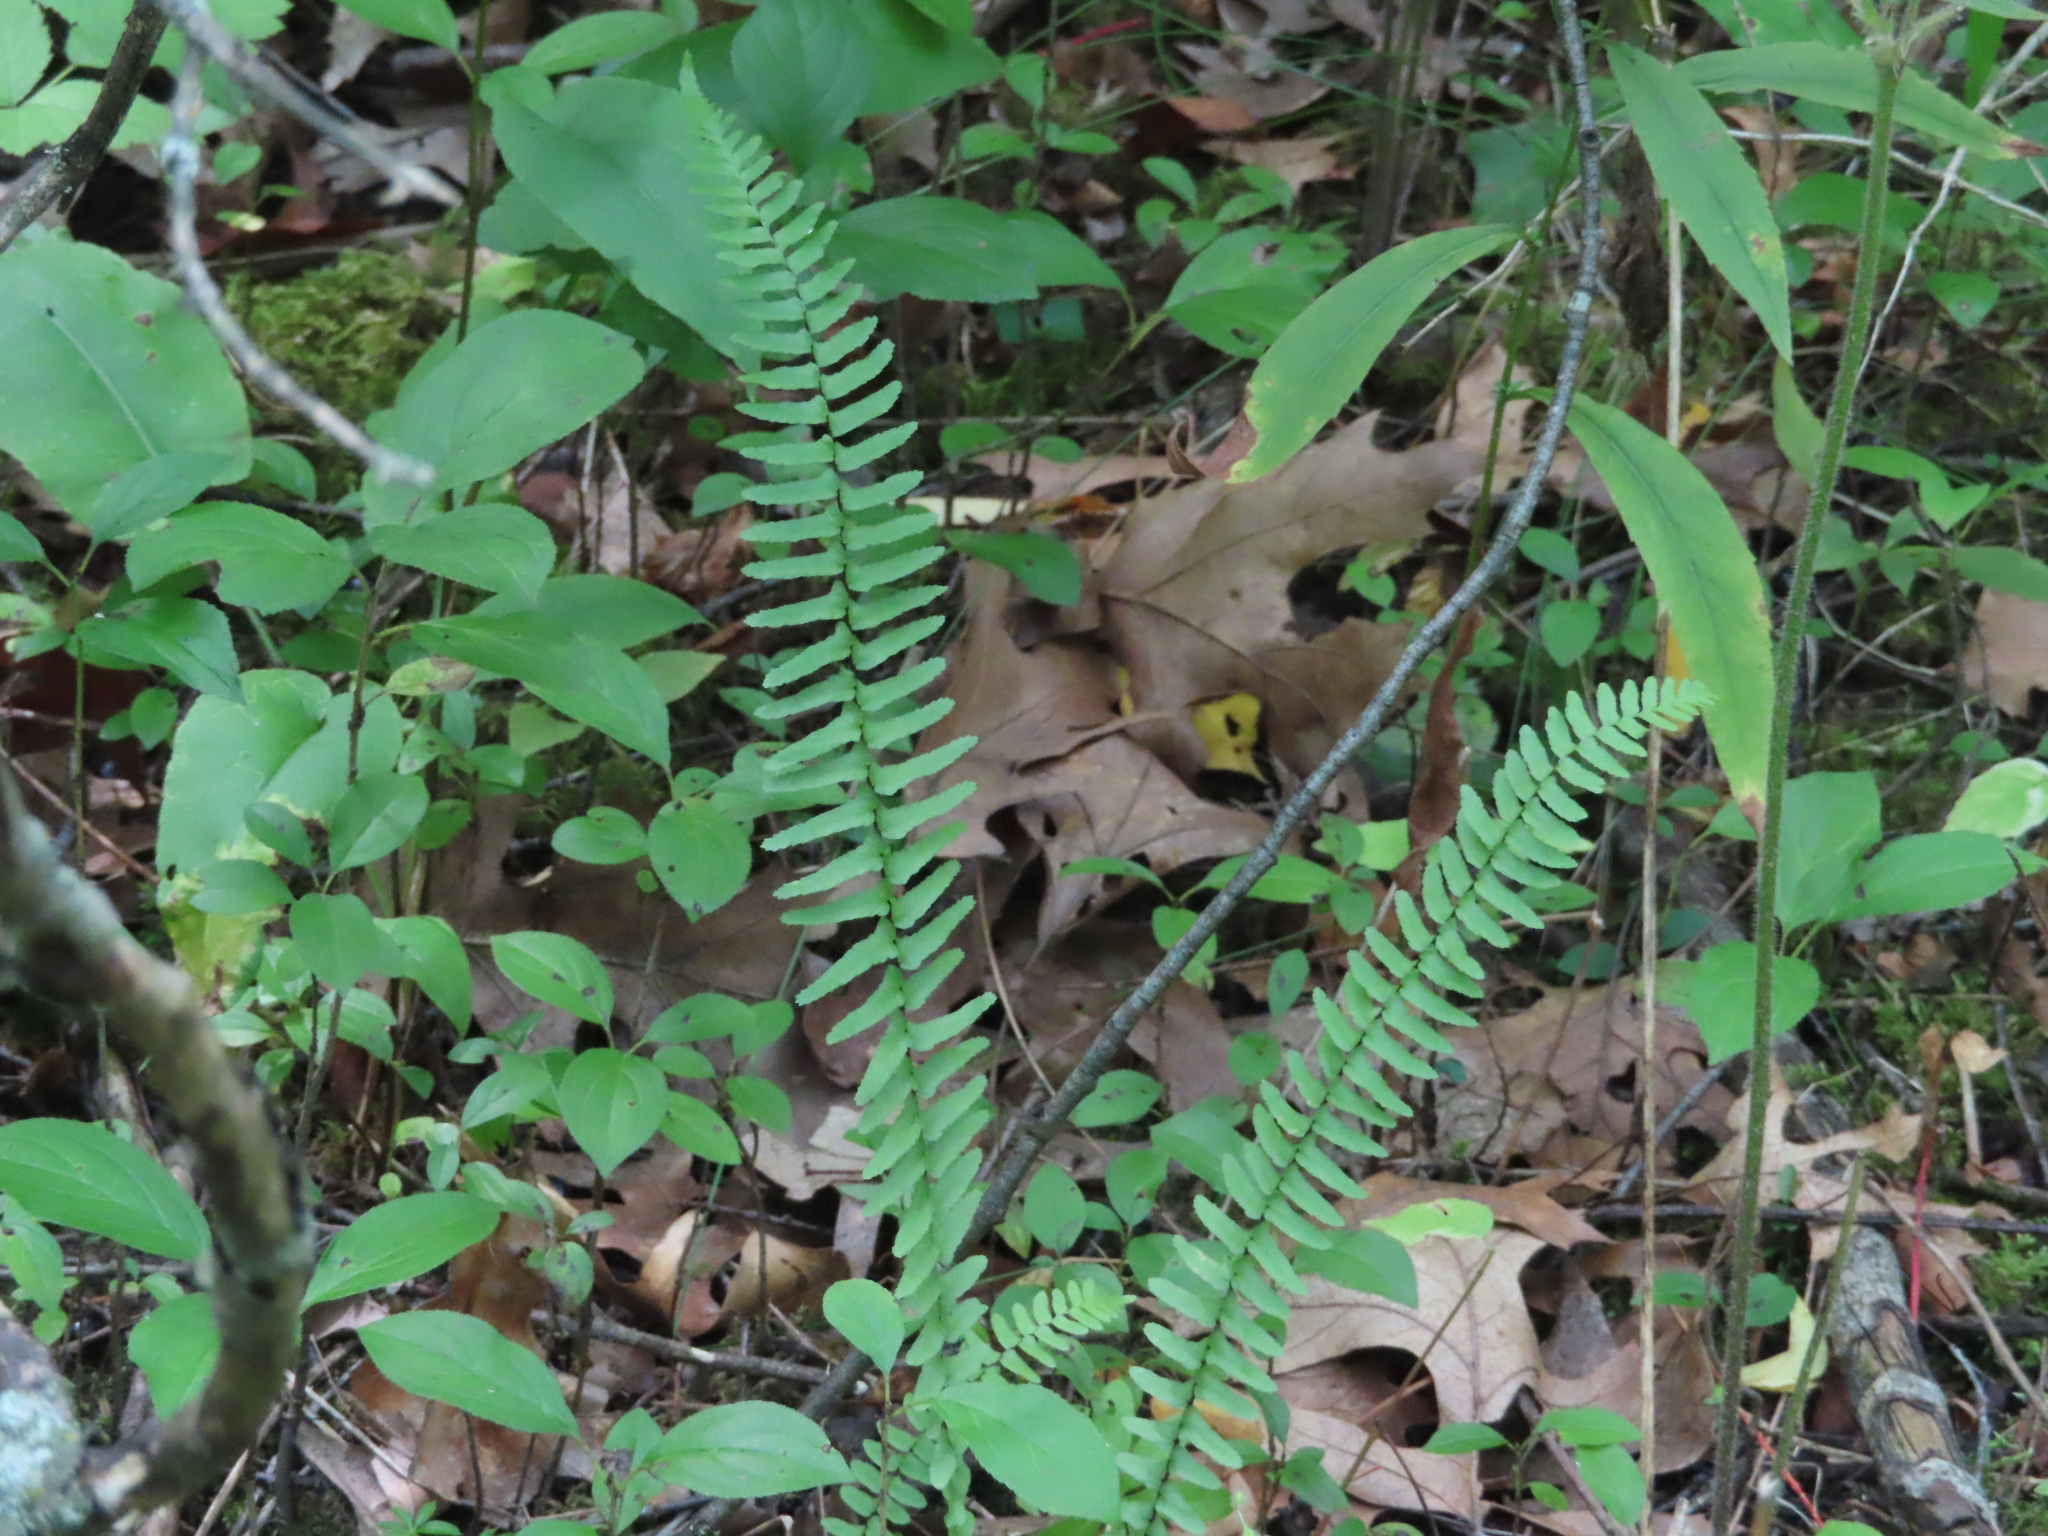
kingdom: Plantae
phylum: Tracheophyta
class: Polypodiopsida
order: Polypodiales
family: Aspleniaceae
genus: Asplenium
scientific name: Asplenium platyneuron
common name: Ebony spleenwort
